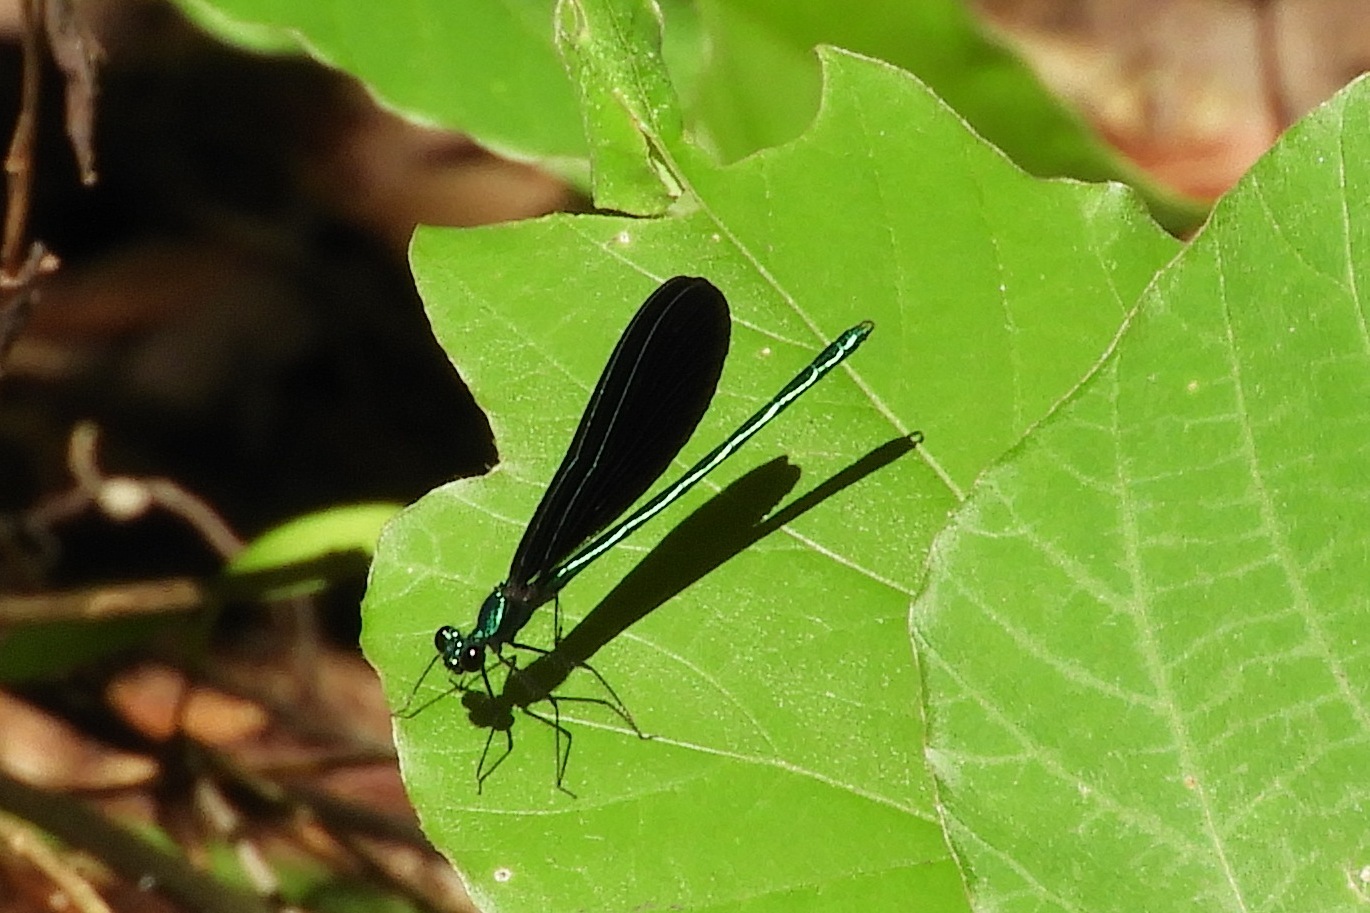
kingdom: Animalia
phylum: Arthropoda
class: Insecta
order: Odonata
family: Calopterygidae
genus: Calopteryx
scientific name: Calopteryx maculata
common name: Ebony jewelwing
